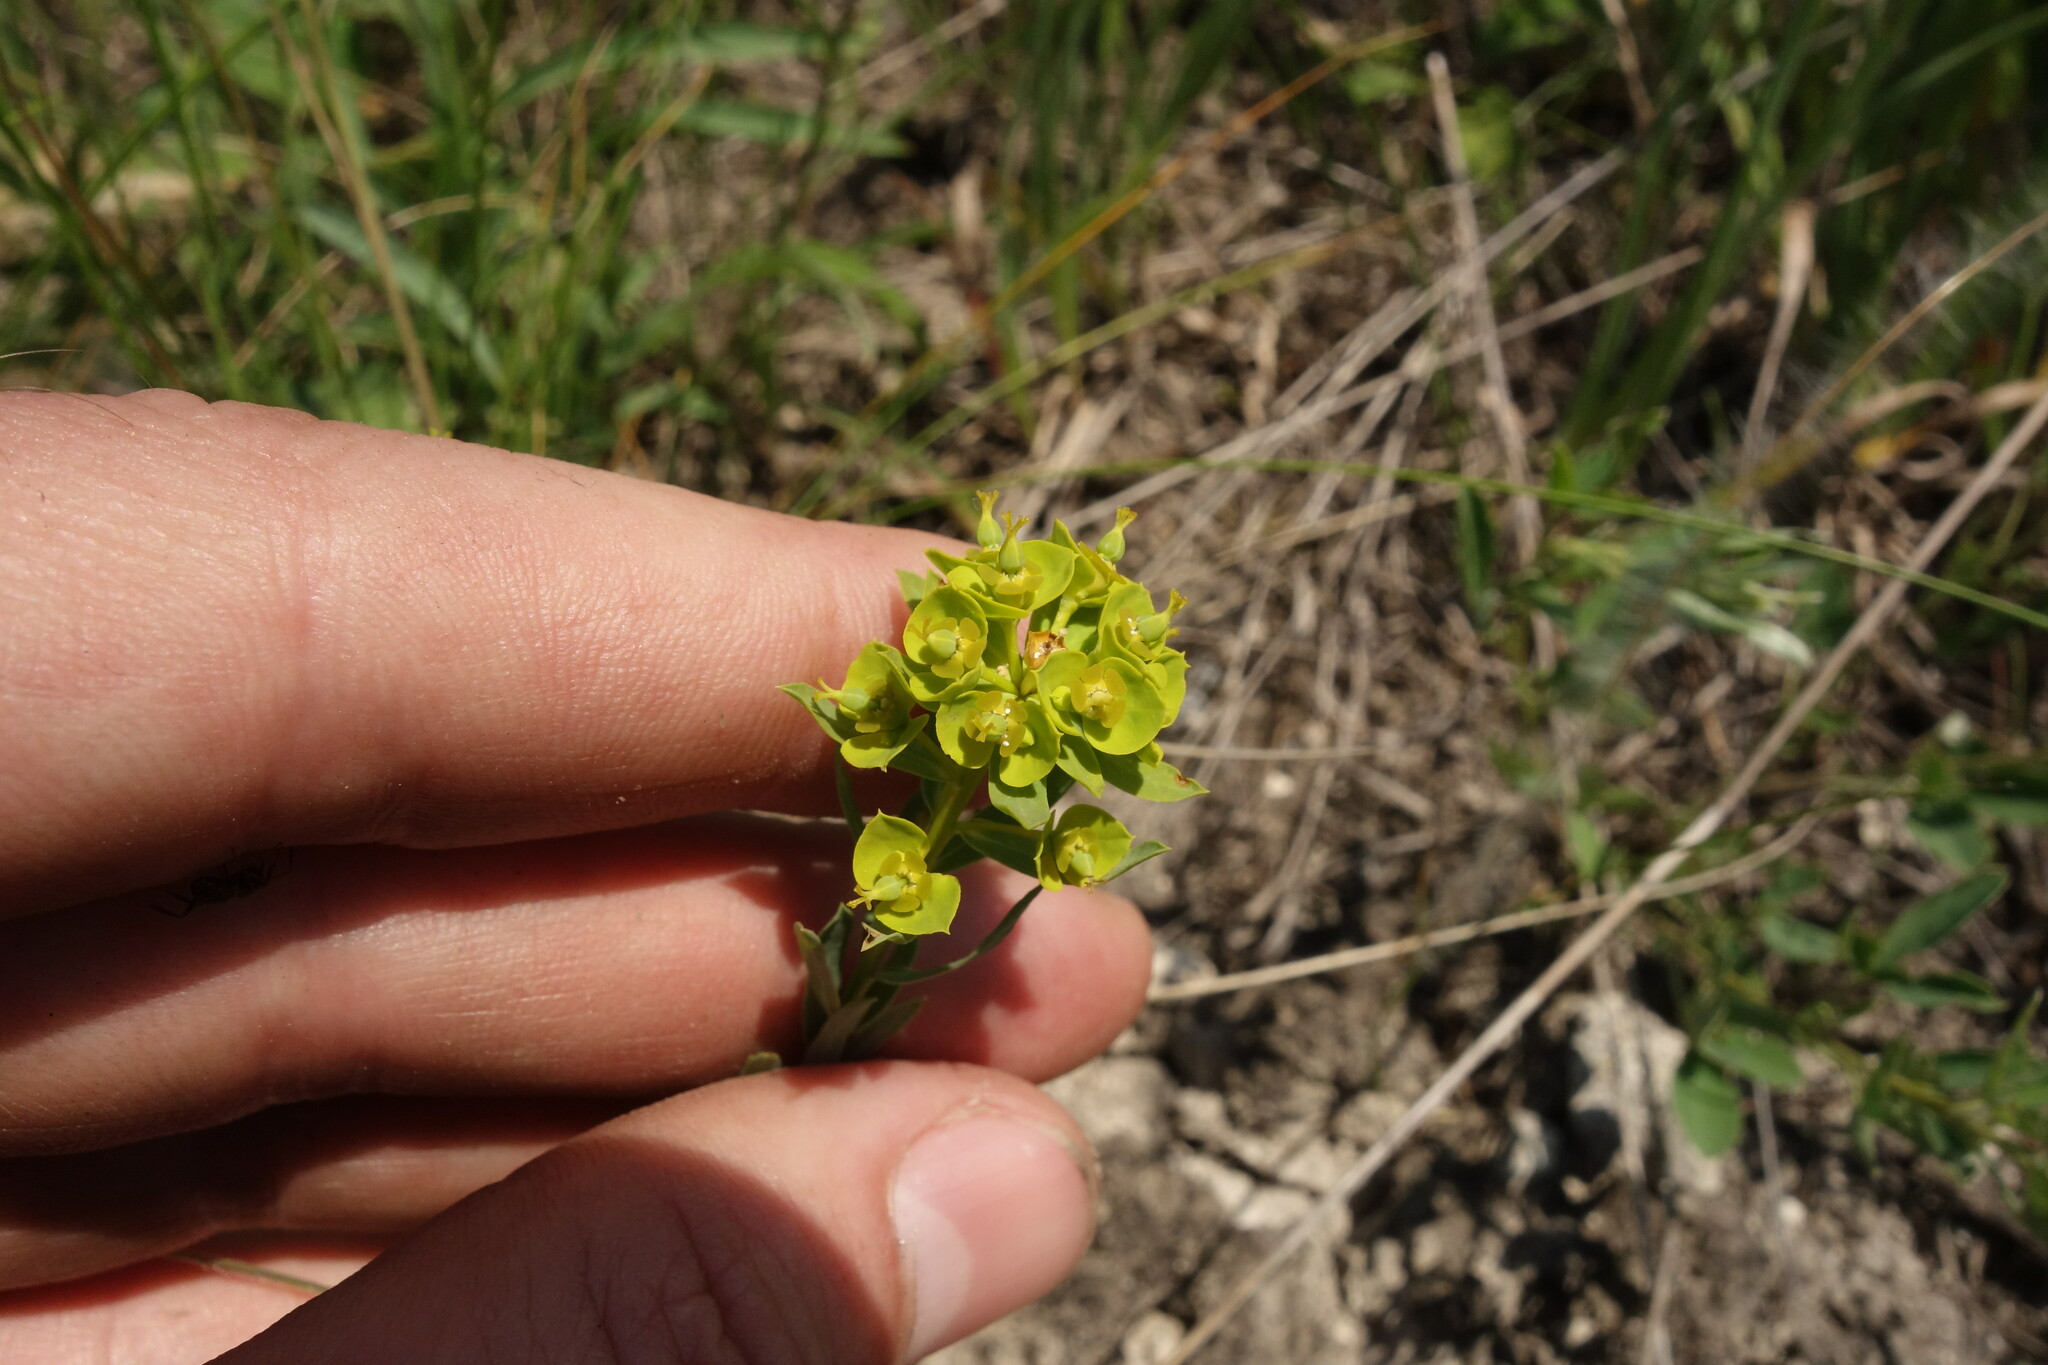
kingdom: Plantae
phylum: Tracheophyta
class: Magnoliopsida
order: Malpighiales
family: Euphorbiaceae
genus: Euphorbia
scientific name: Euphorbia seguieriana
